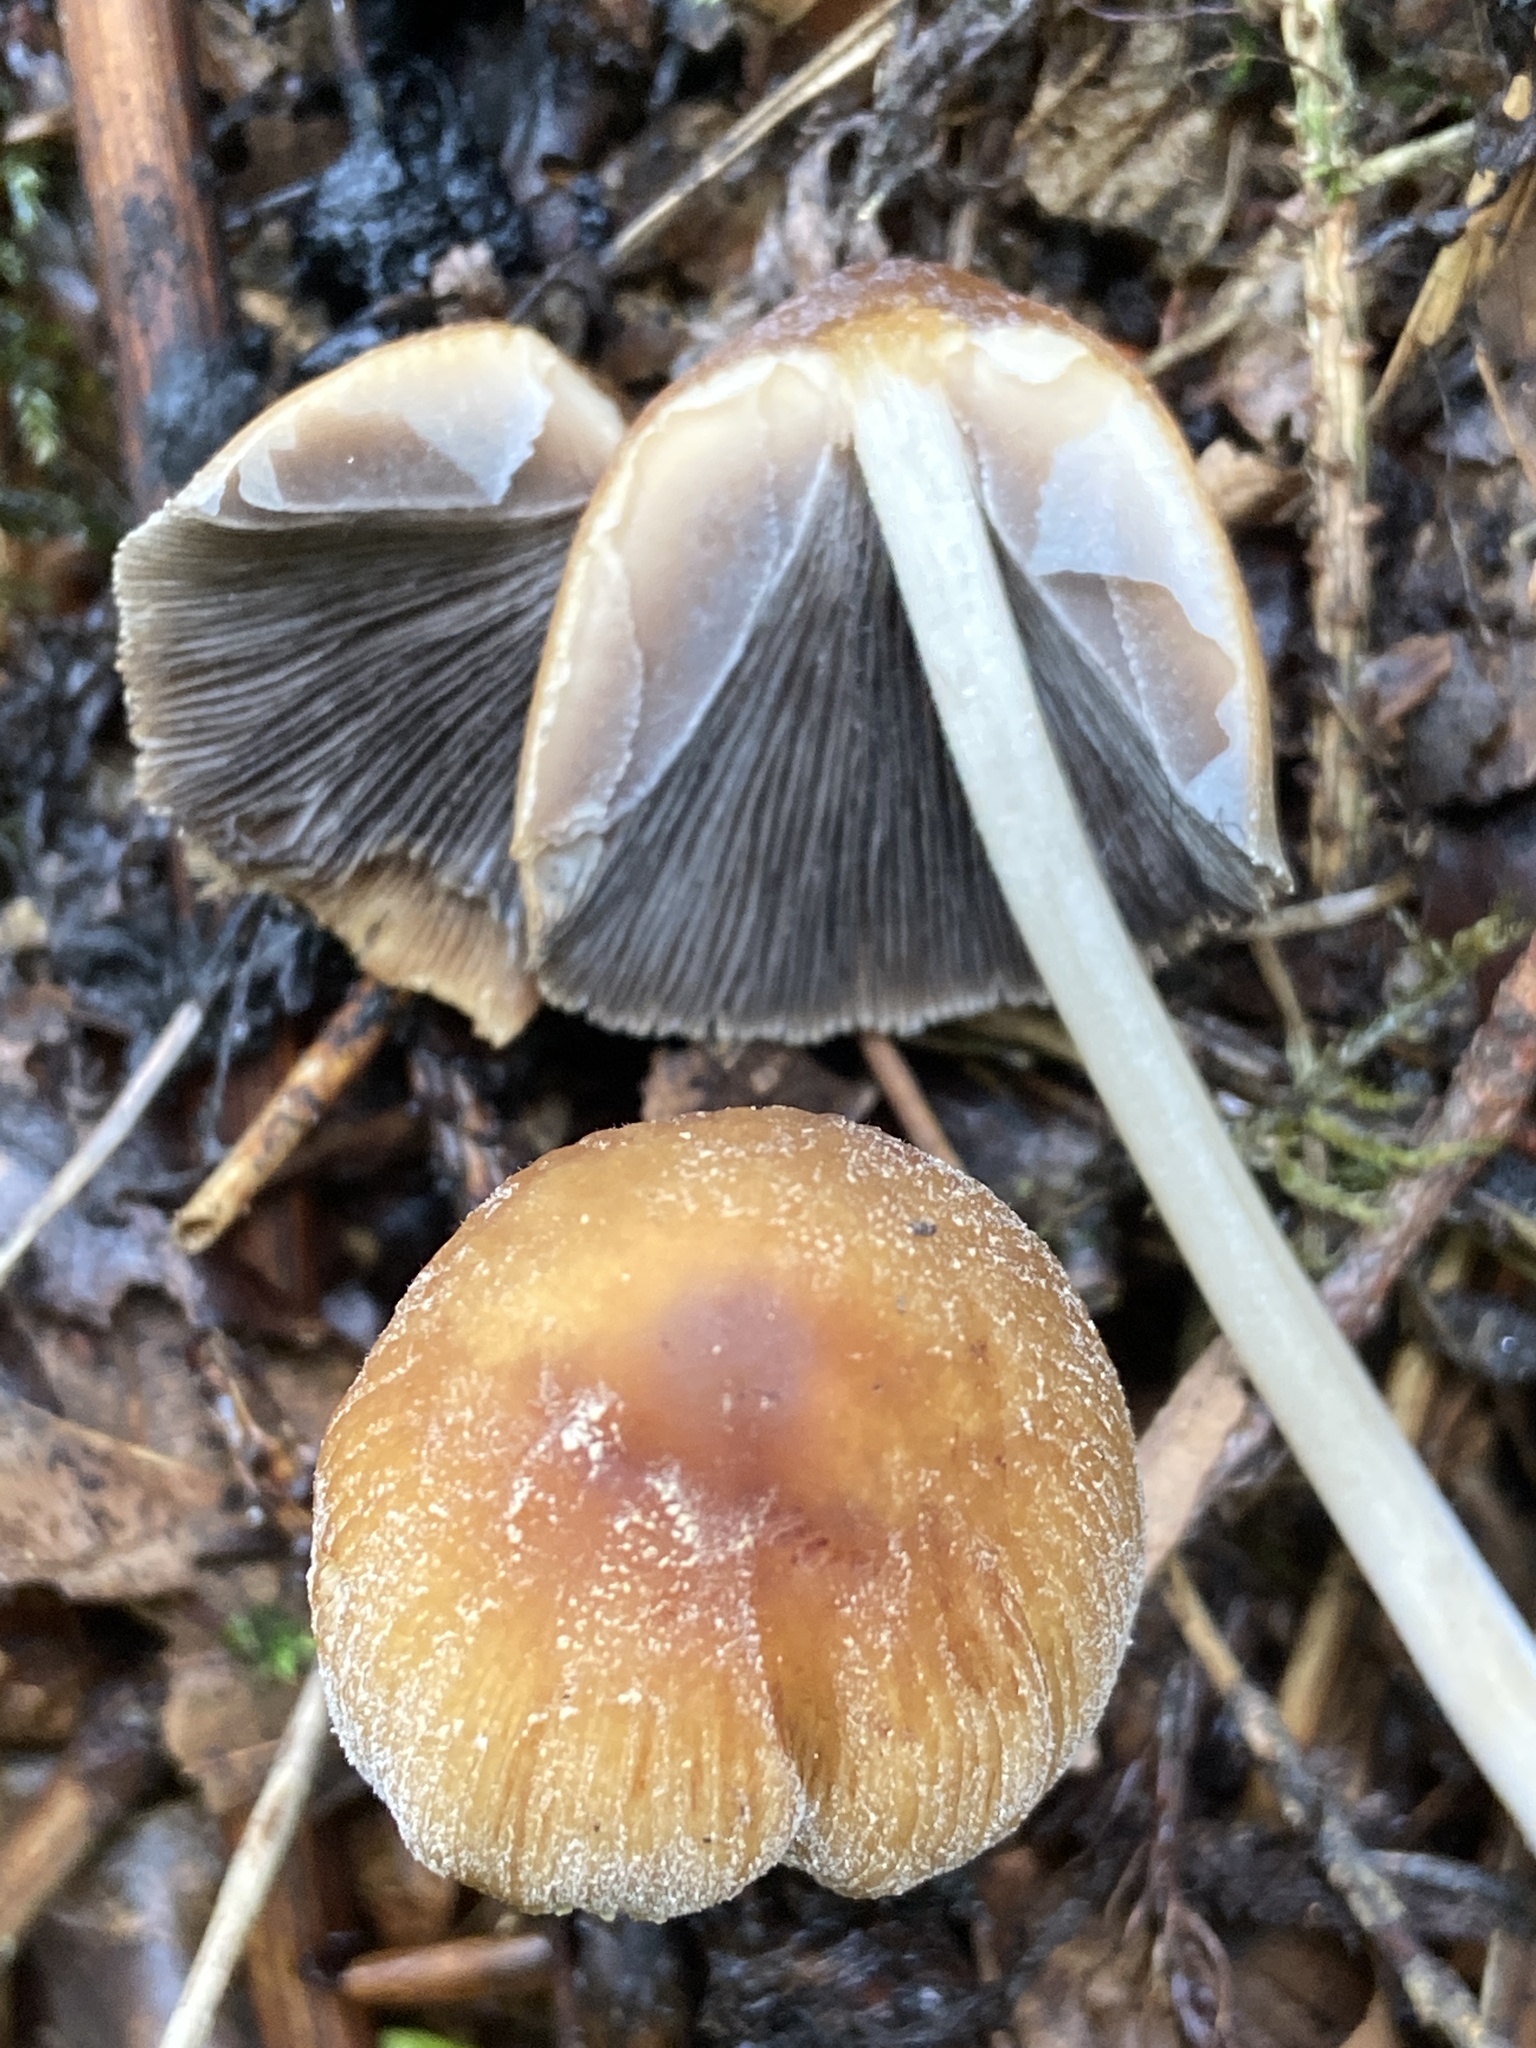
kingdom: Fungi
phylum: Basidiomycota
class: Agaricomycetes
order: Agaricales
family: Psathyrellaceae
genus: Coprinellus
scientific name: Coprinellus micaceus
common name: Glistening ink-cap
